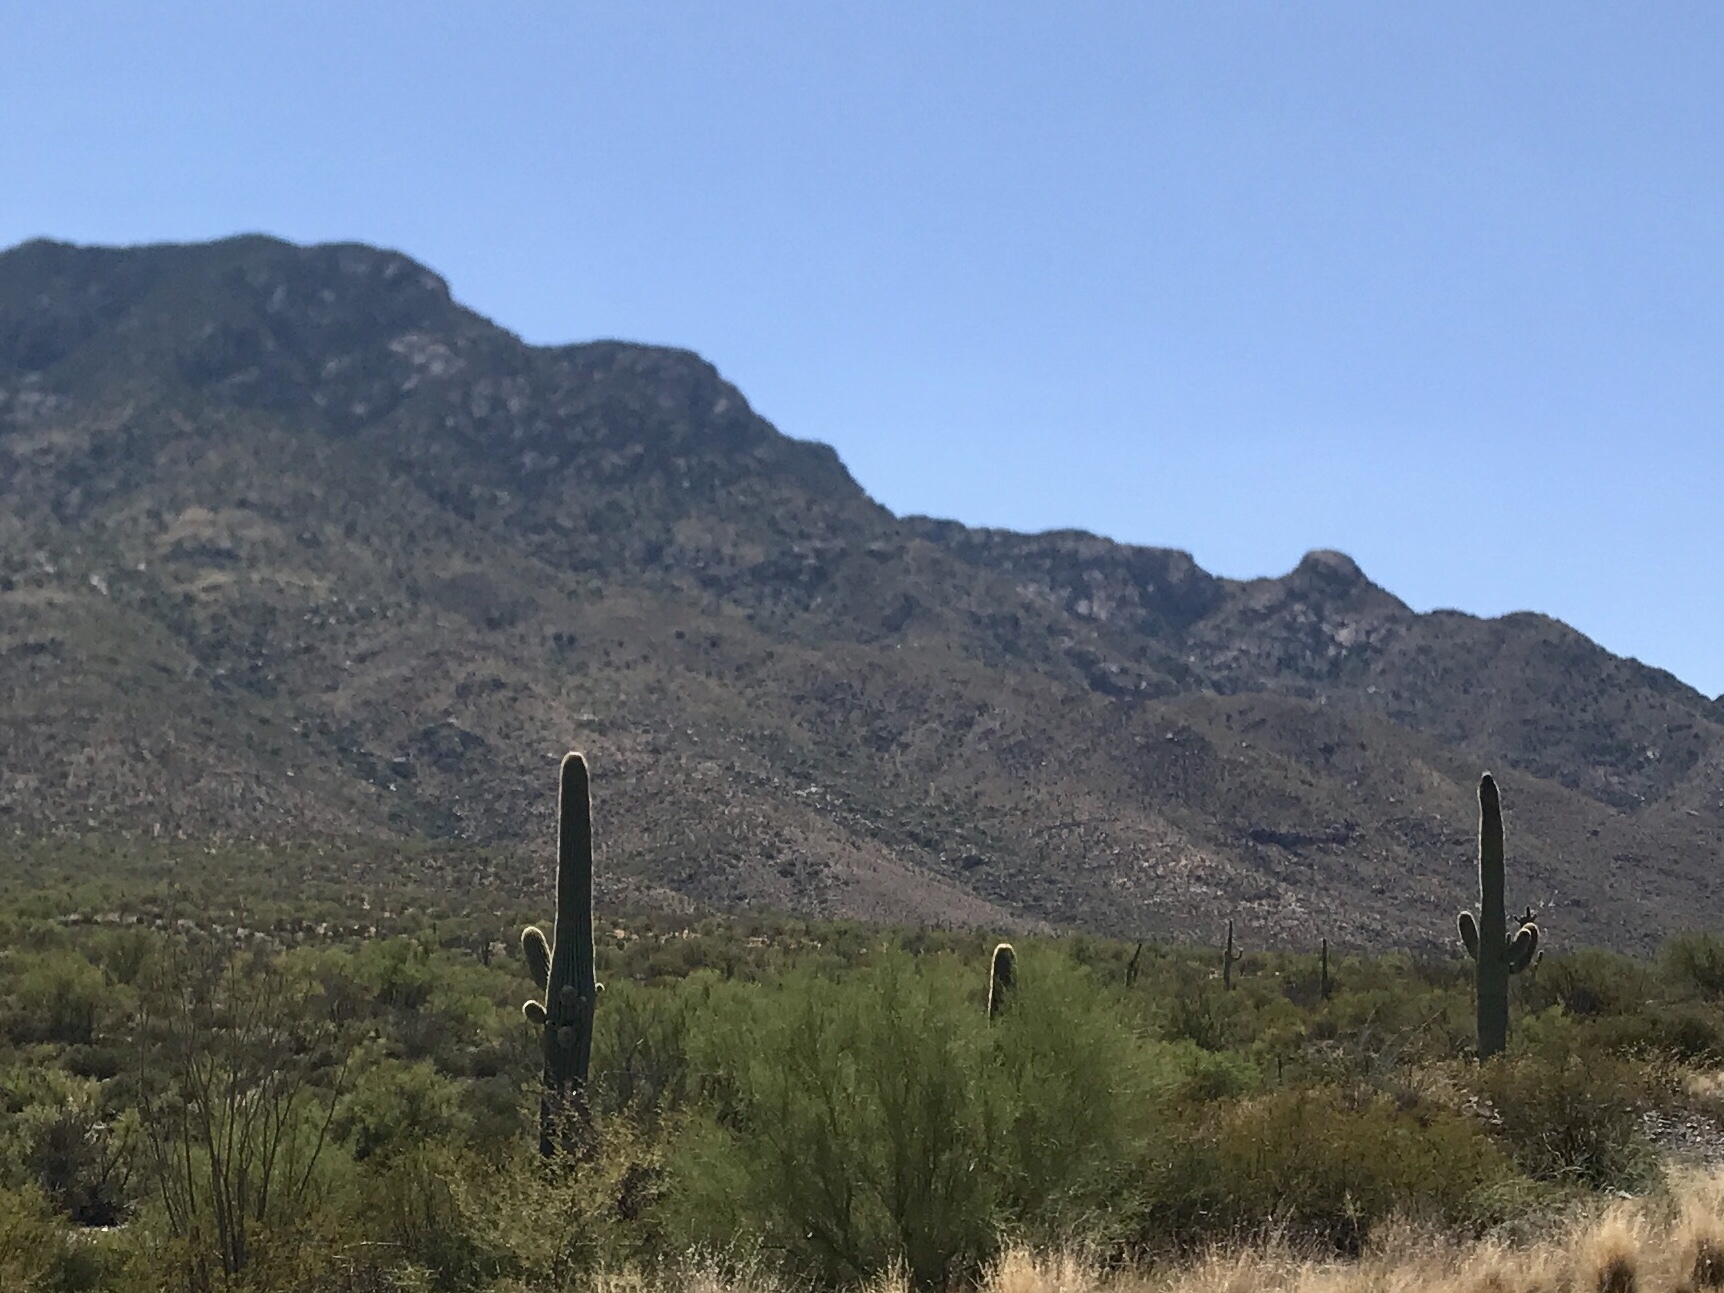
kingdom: Plantae
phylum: Tracheophyta
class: Magnoliopsida
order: Caryophyllales
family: Cactaceae
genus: Carnegiea
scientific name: Carnegiea gigantea
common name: Saguaro
